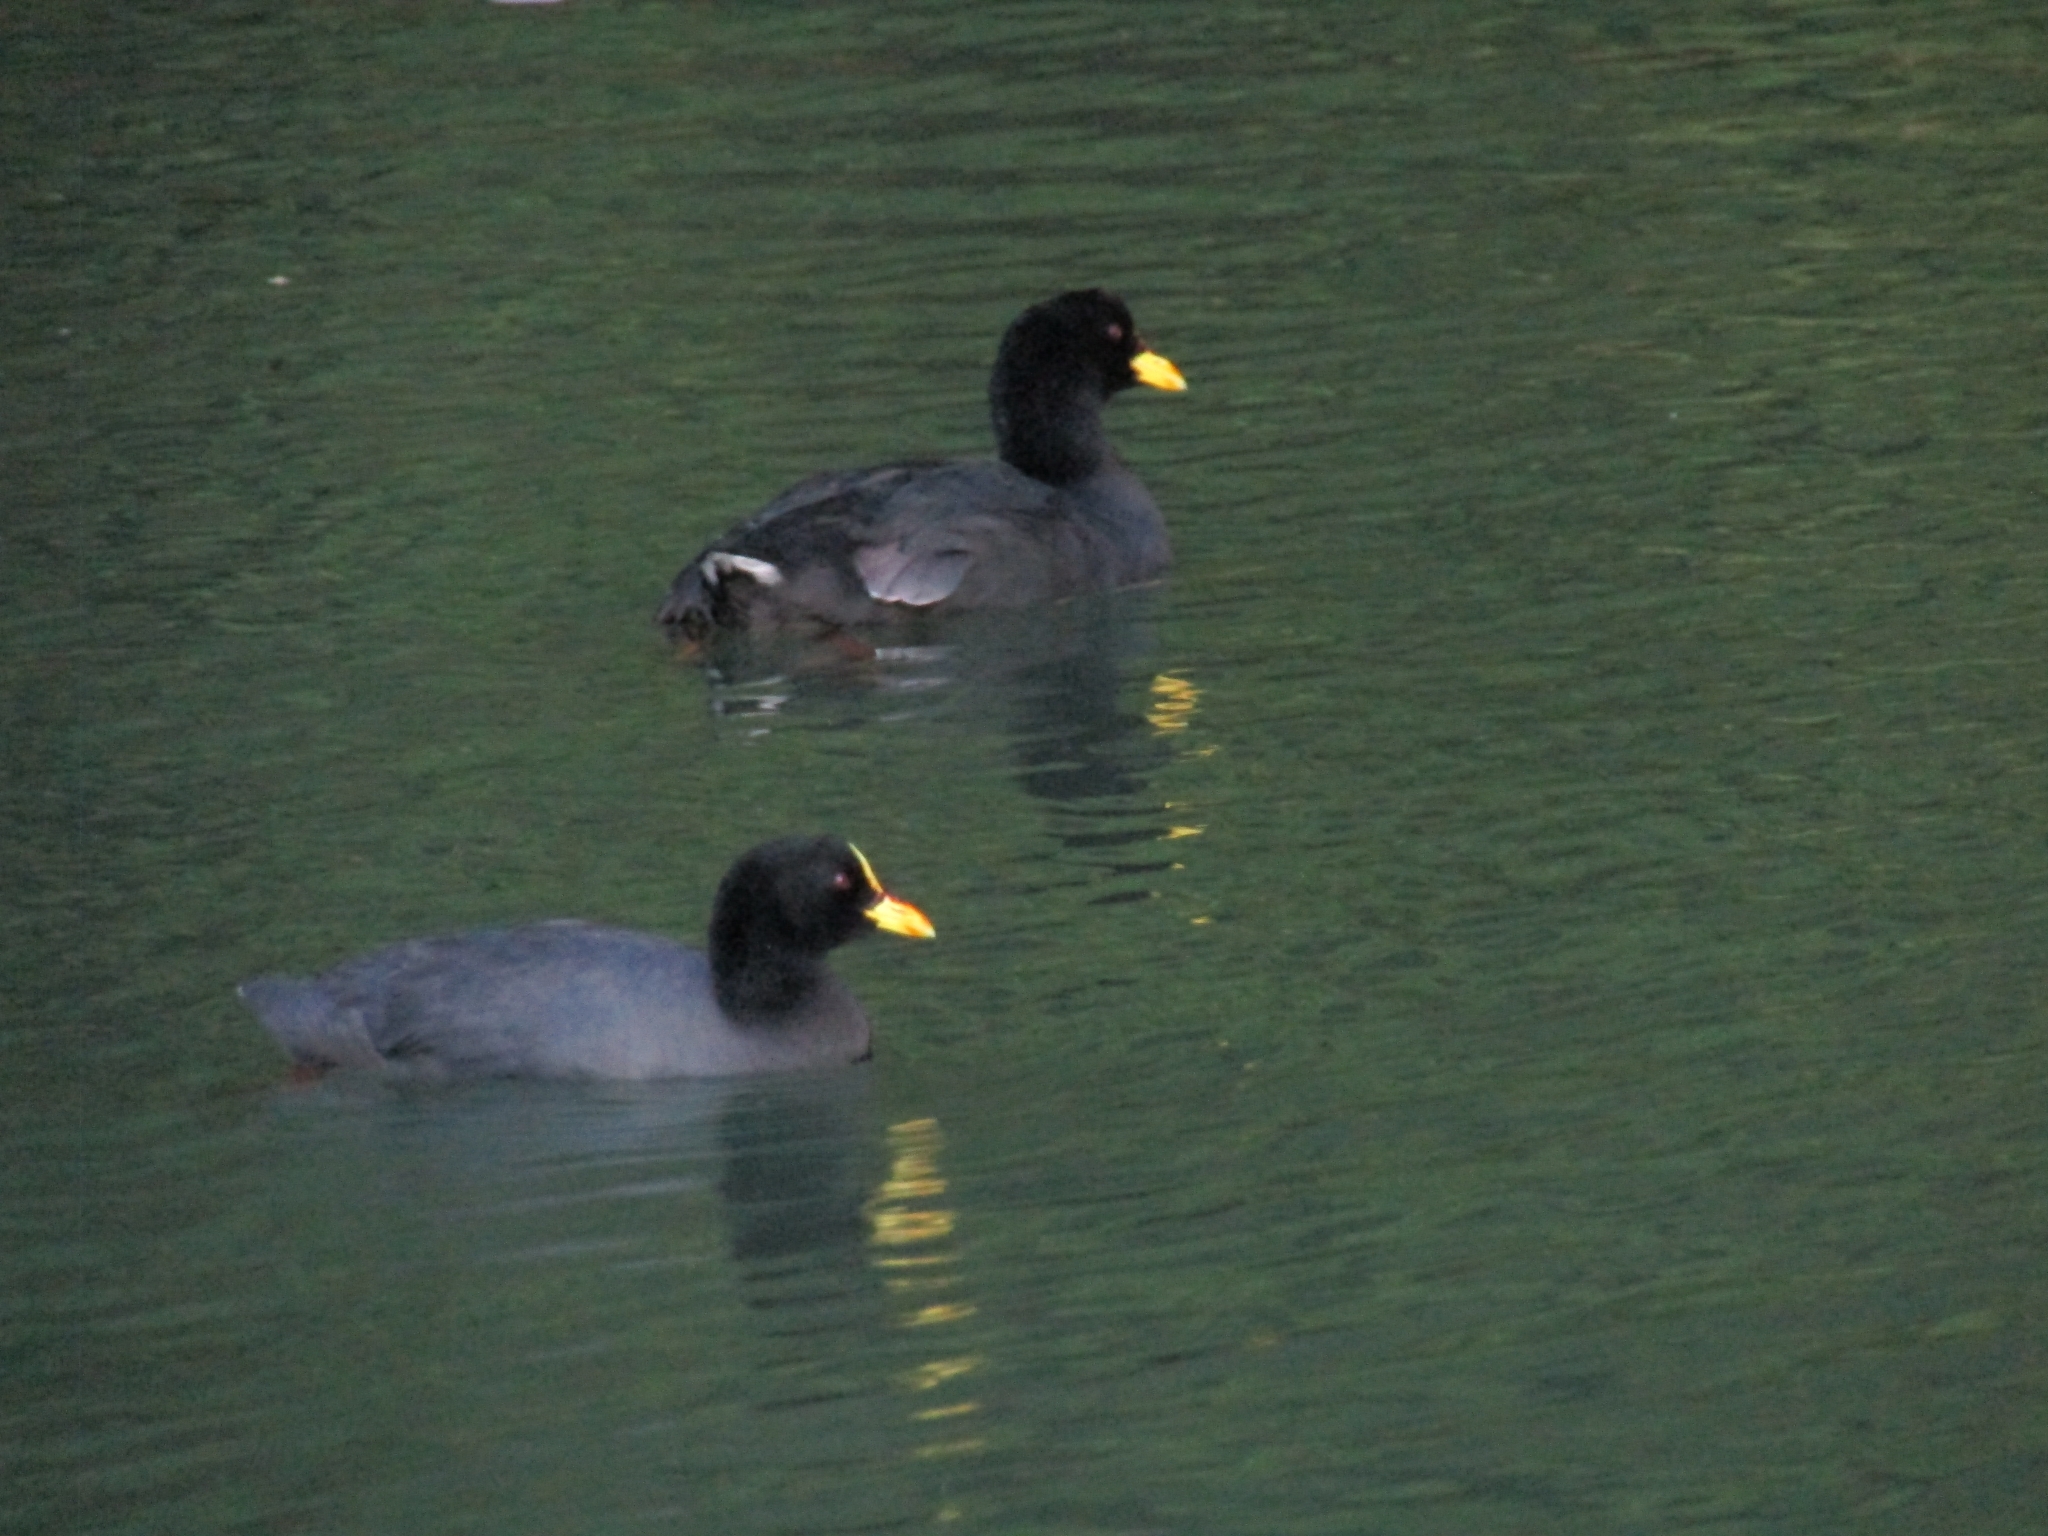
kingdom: Animalia
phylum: Chordata
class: Aves
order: Gruiformes
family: Rallidae
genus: Fulica
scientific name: Fulica armillata
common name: Red-gartered coot
